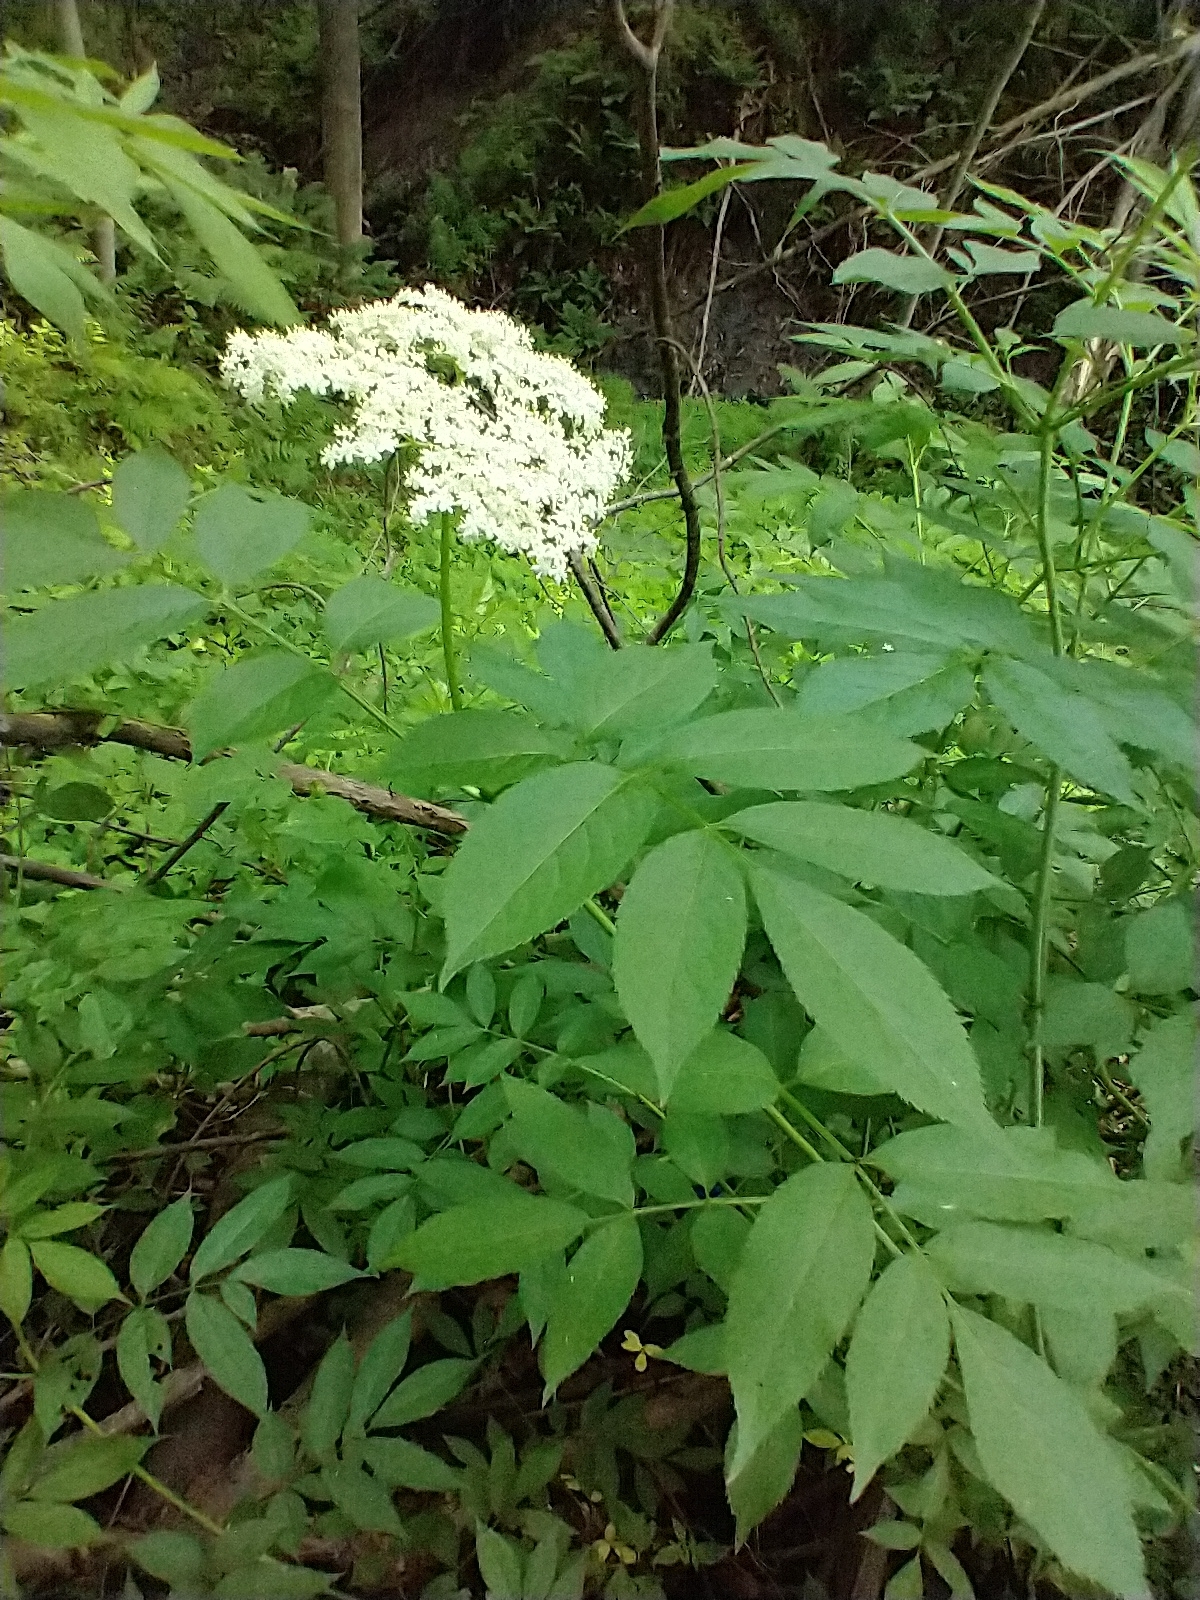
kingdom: Plantae
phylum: Tracheophyta
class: Magnoliopsida
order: Dipsacales
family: Viburnaceae
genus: Sambucus
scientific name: Sambucus canadensis
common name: American elder
